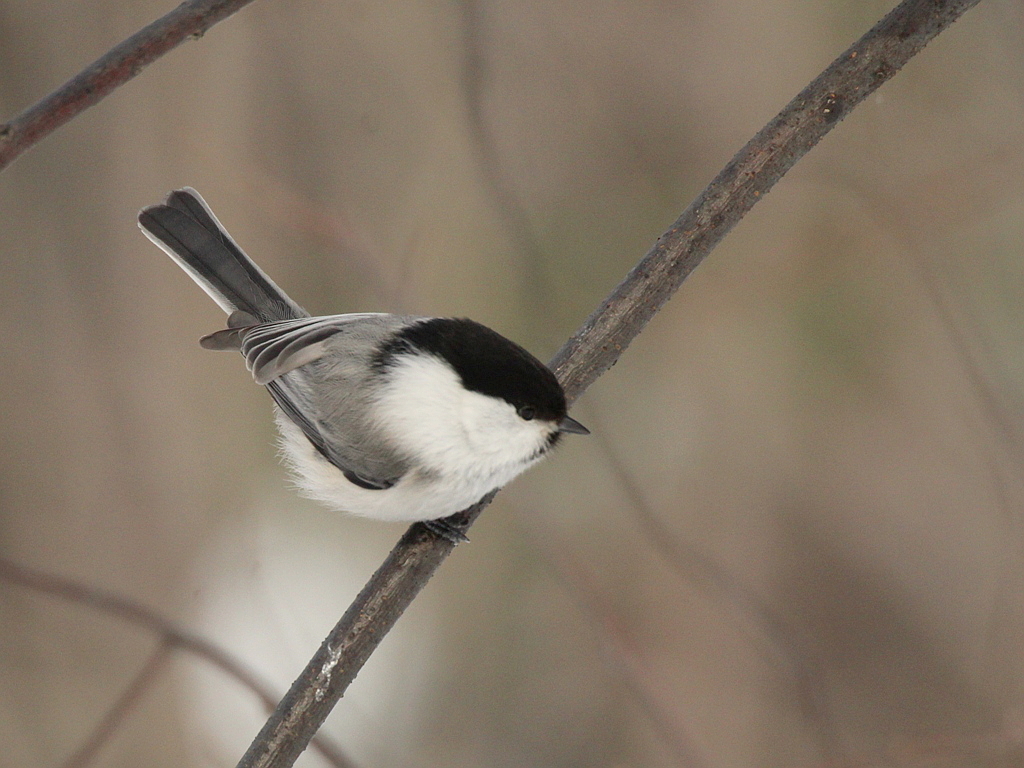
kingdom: Animalia
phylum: Chordata
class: Aves
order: Passeriformes
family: Paridae
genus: Poecile
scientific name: Poecile montanus
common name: Willow tit
